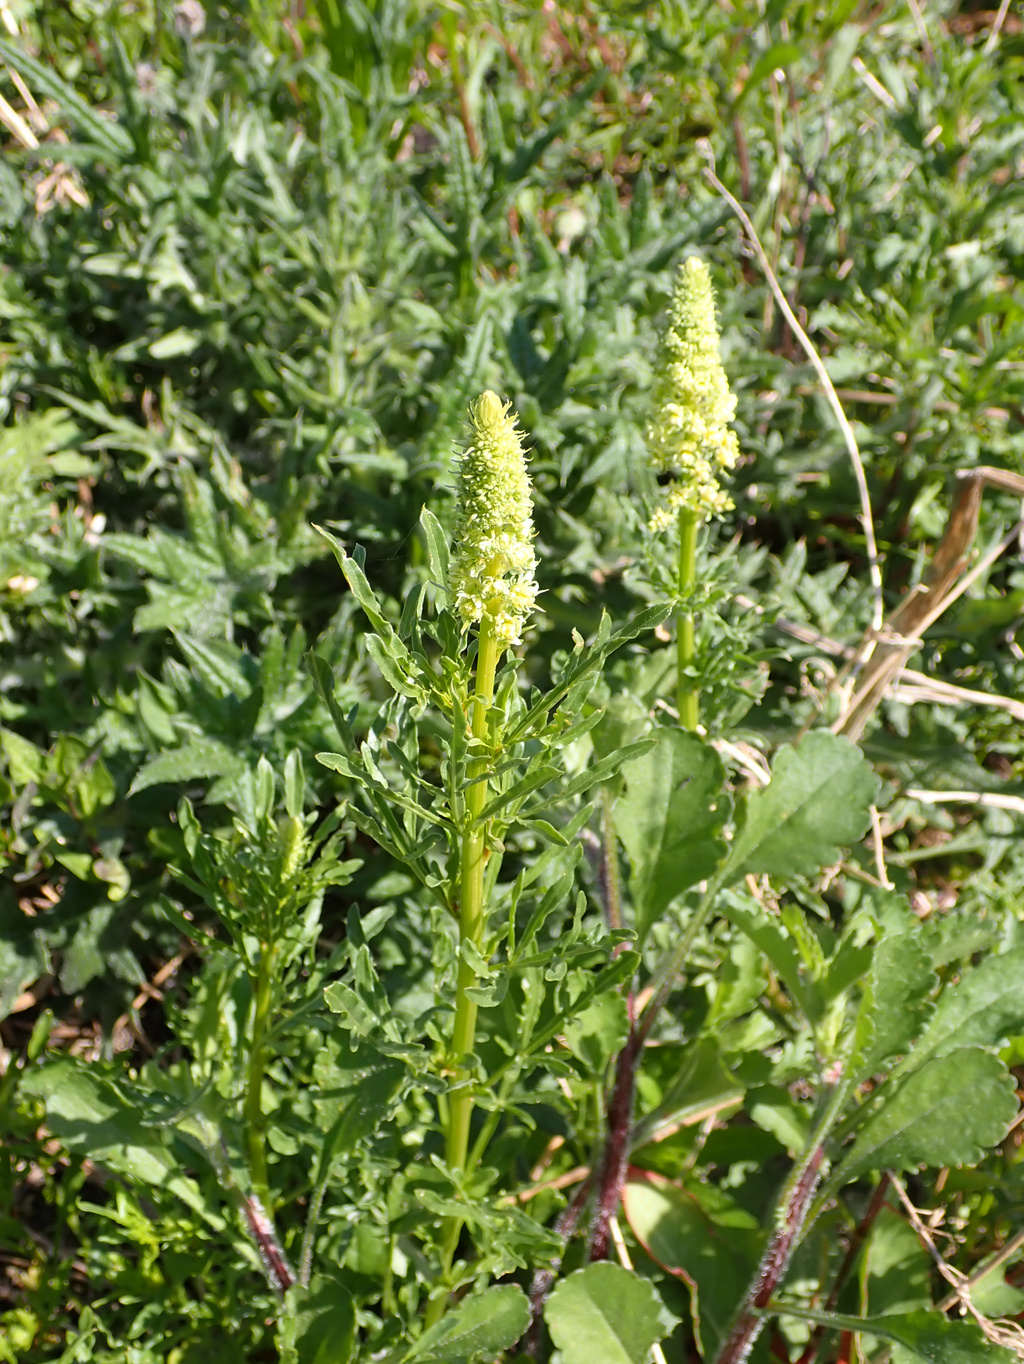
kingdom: Plantae
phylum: Tracheophyta
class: Magnoliopsida
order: Brassicales
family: Resedaceae
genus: Reseda
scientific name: Reseda lutea
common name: Wild mignonette
